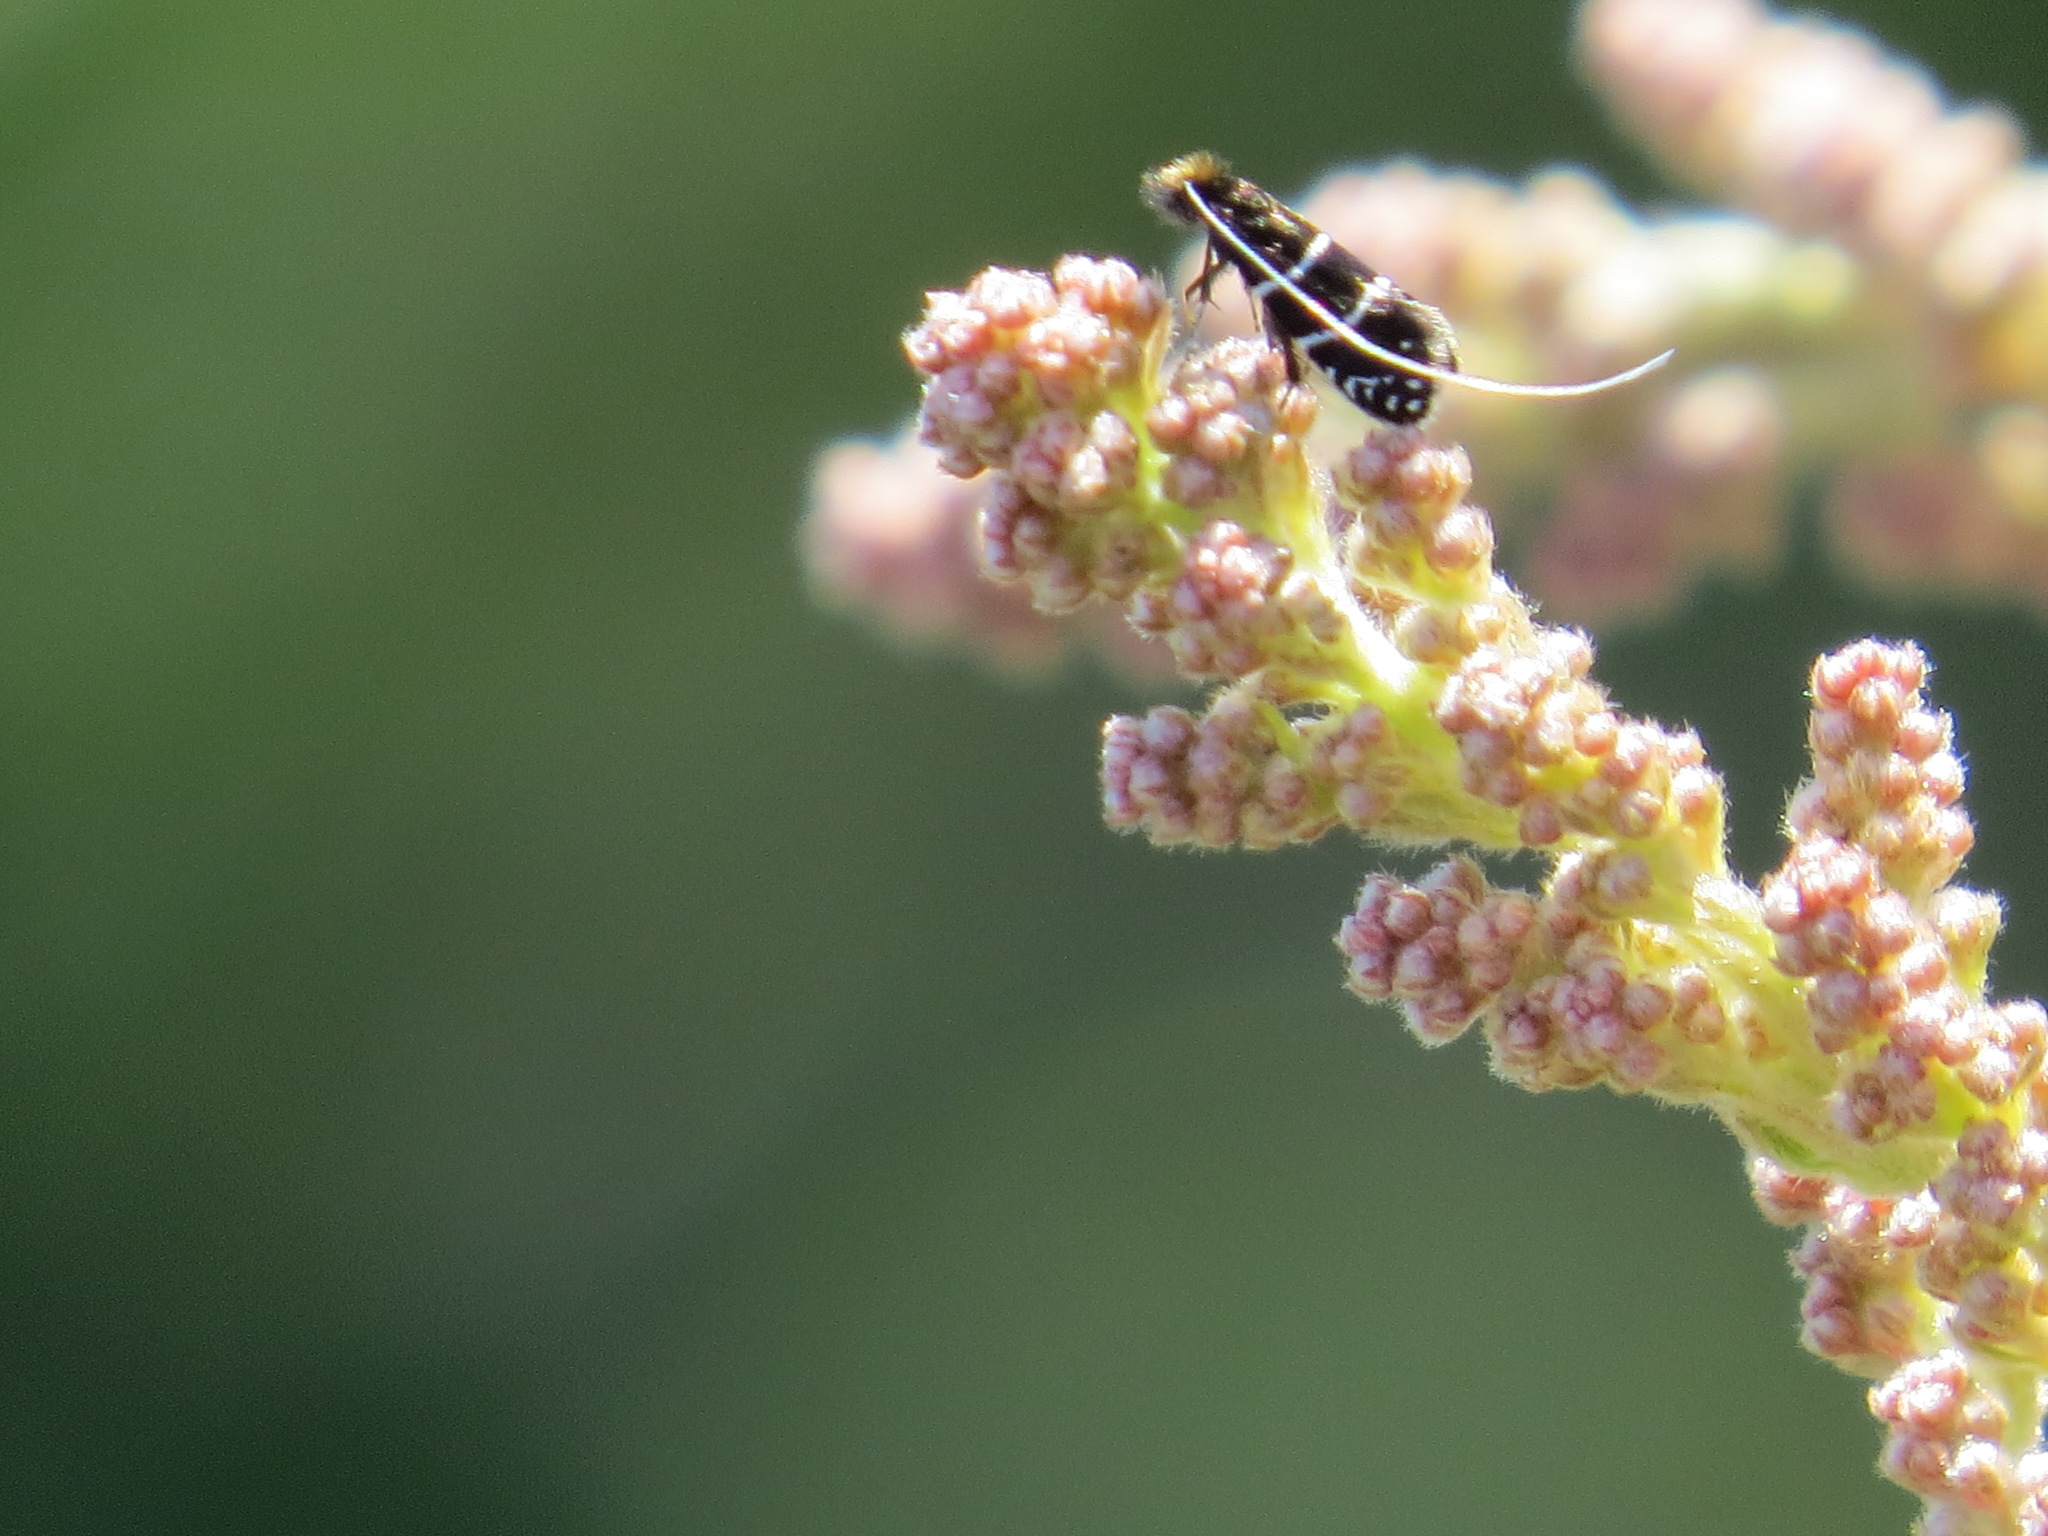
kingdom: Animalia
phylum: Arthropoda
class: Insecta
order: Lepidoptera
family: Adelidae
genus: Adela
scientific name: Adela septentrionella
